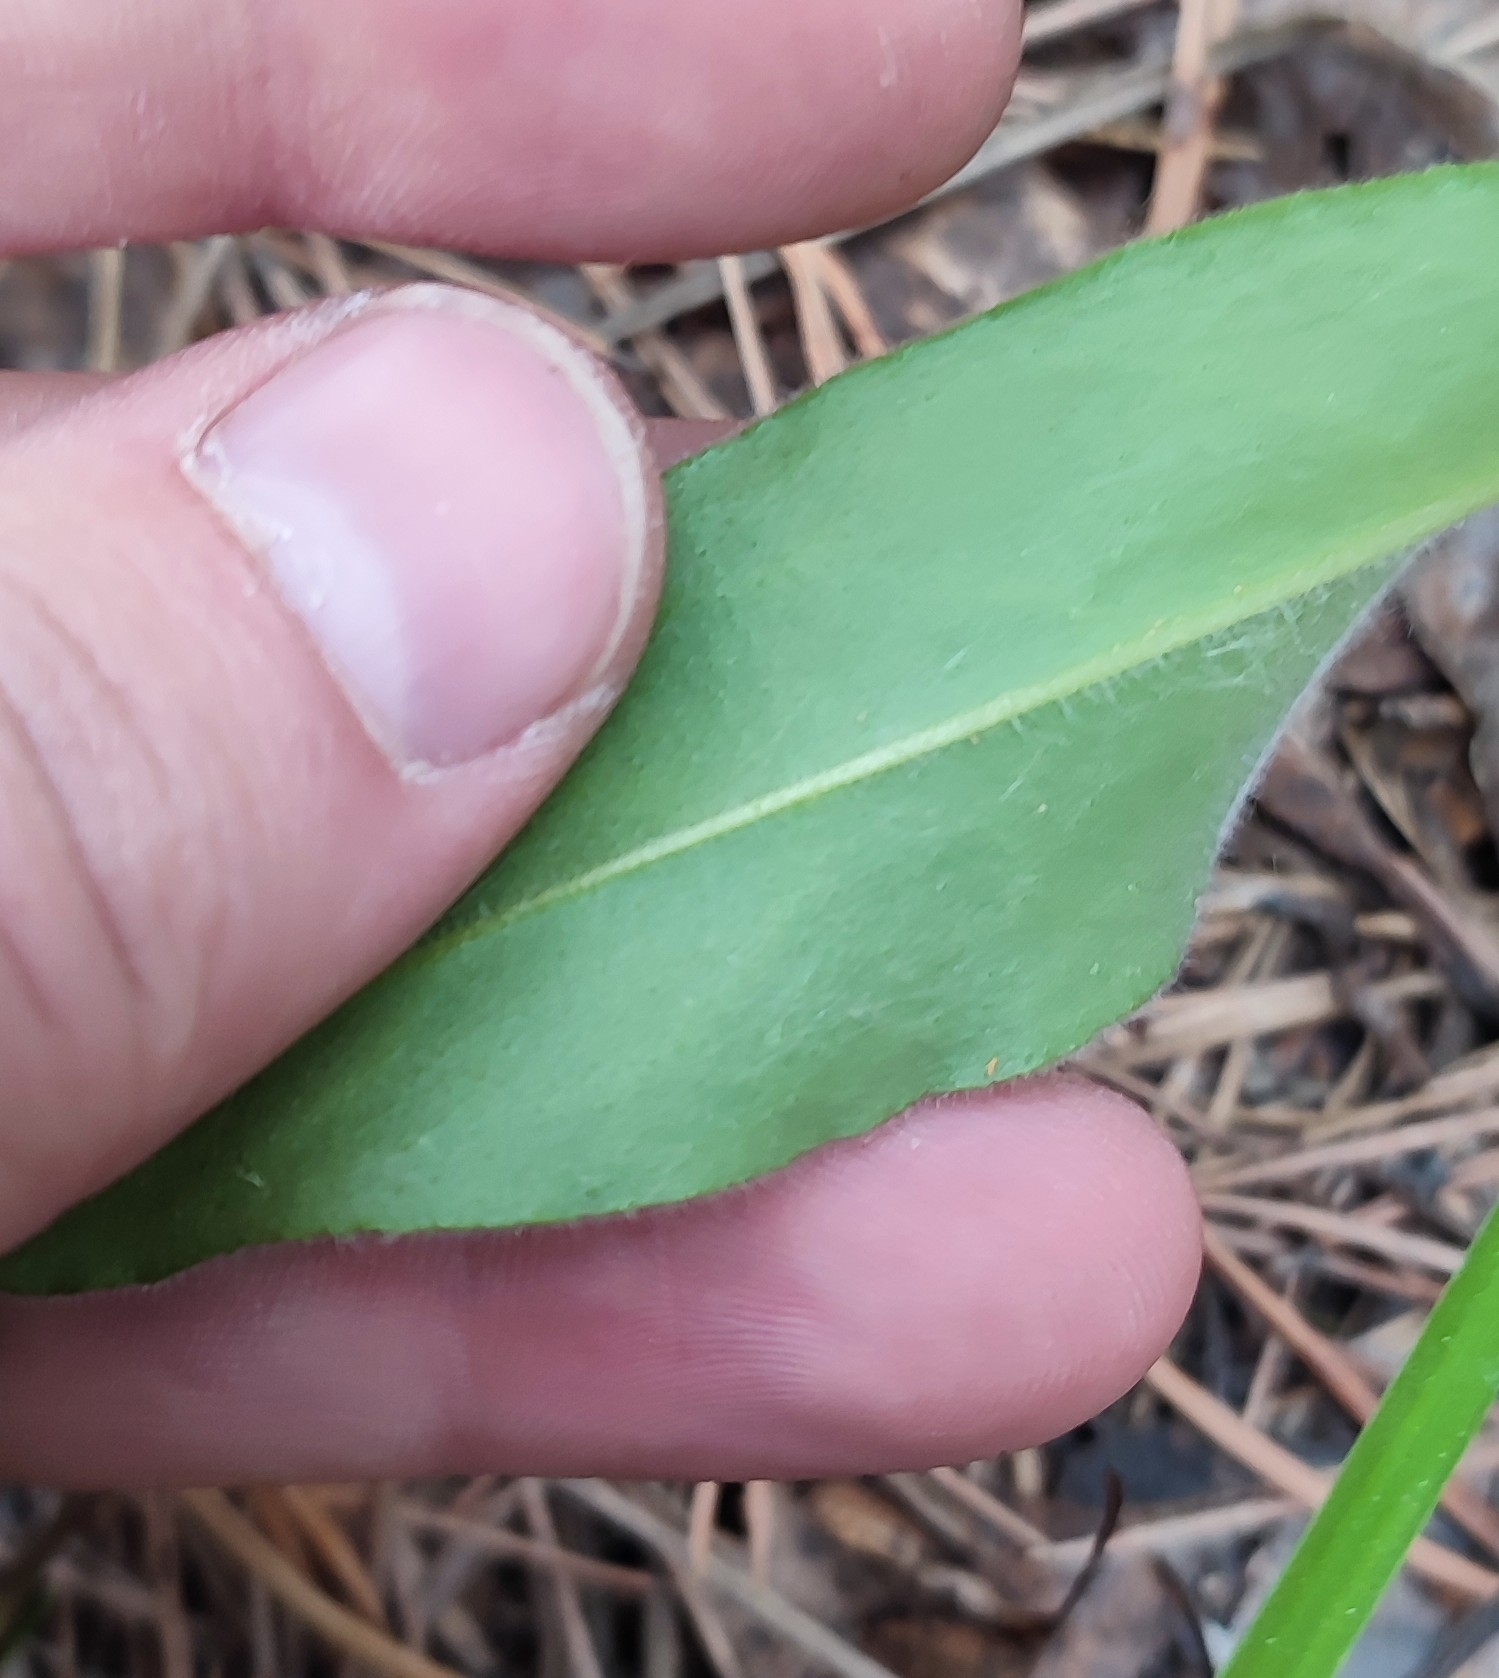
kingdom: Plantae
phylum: Tracheophyta
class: Magnoliopsida
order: Boraginales
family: Boraginaceae
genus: Pulmonaria
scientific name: Pulmonaria mollis
